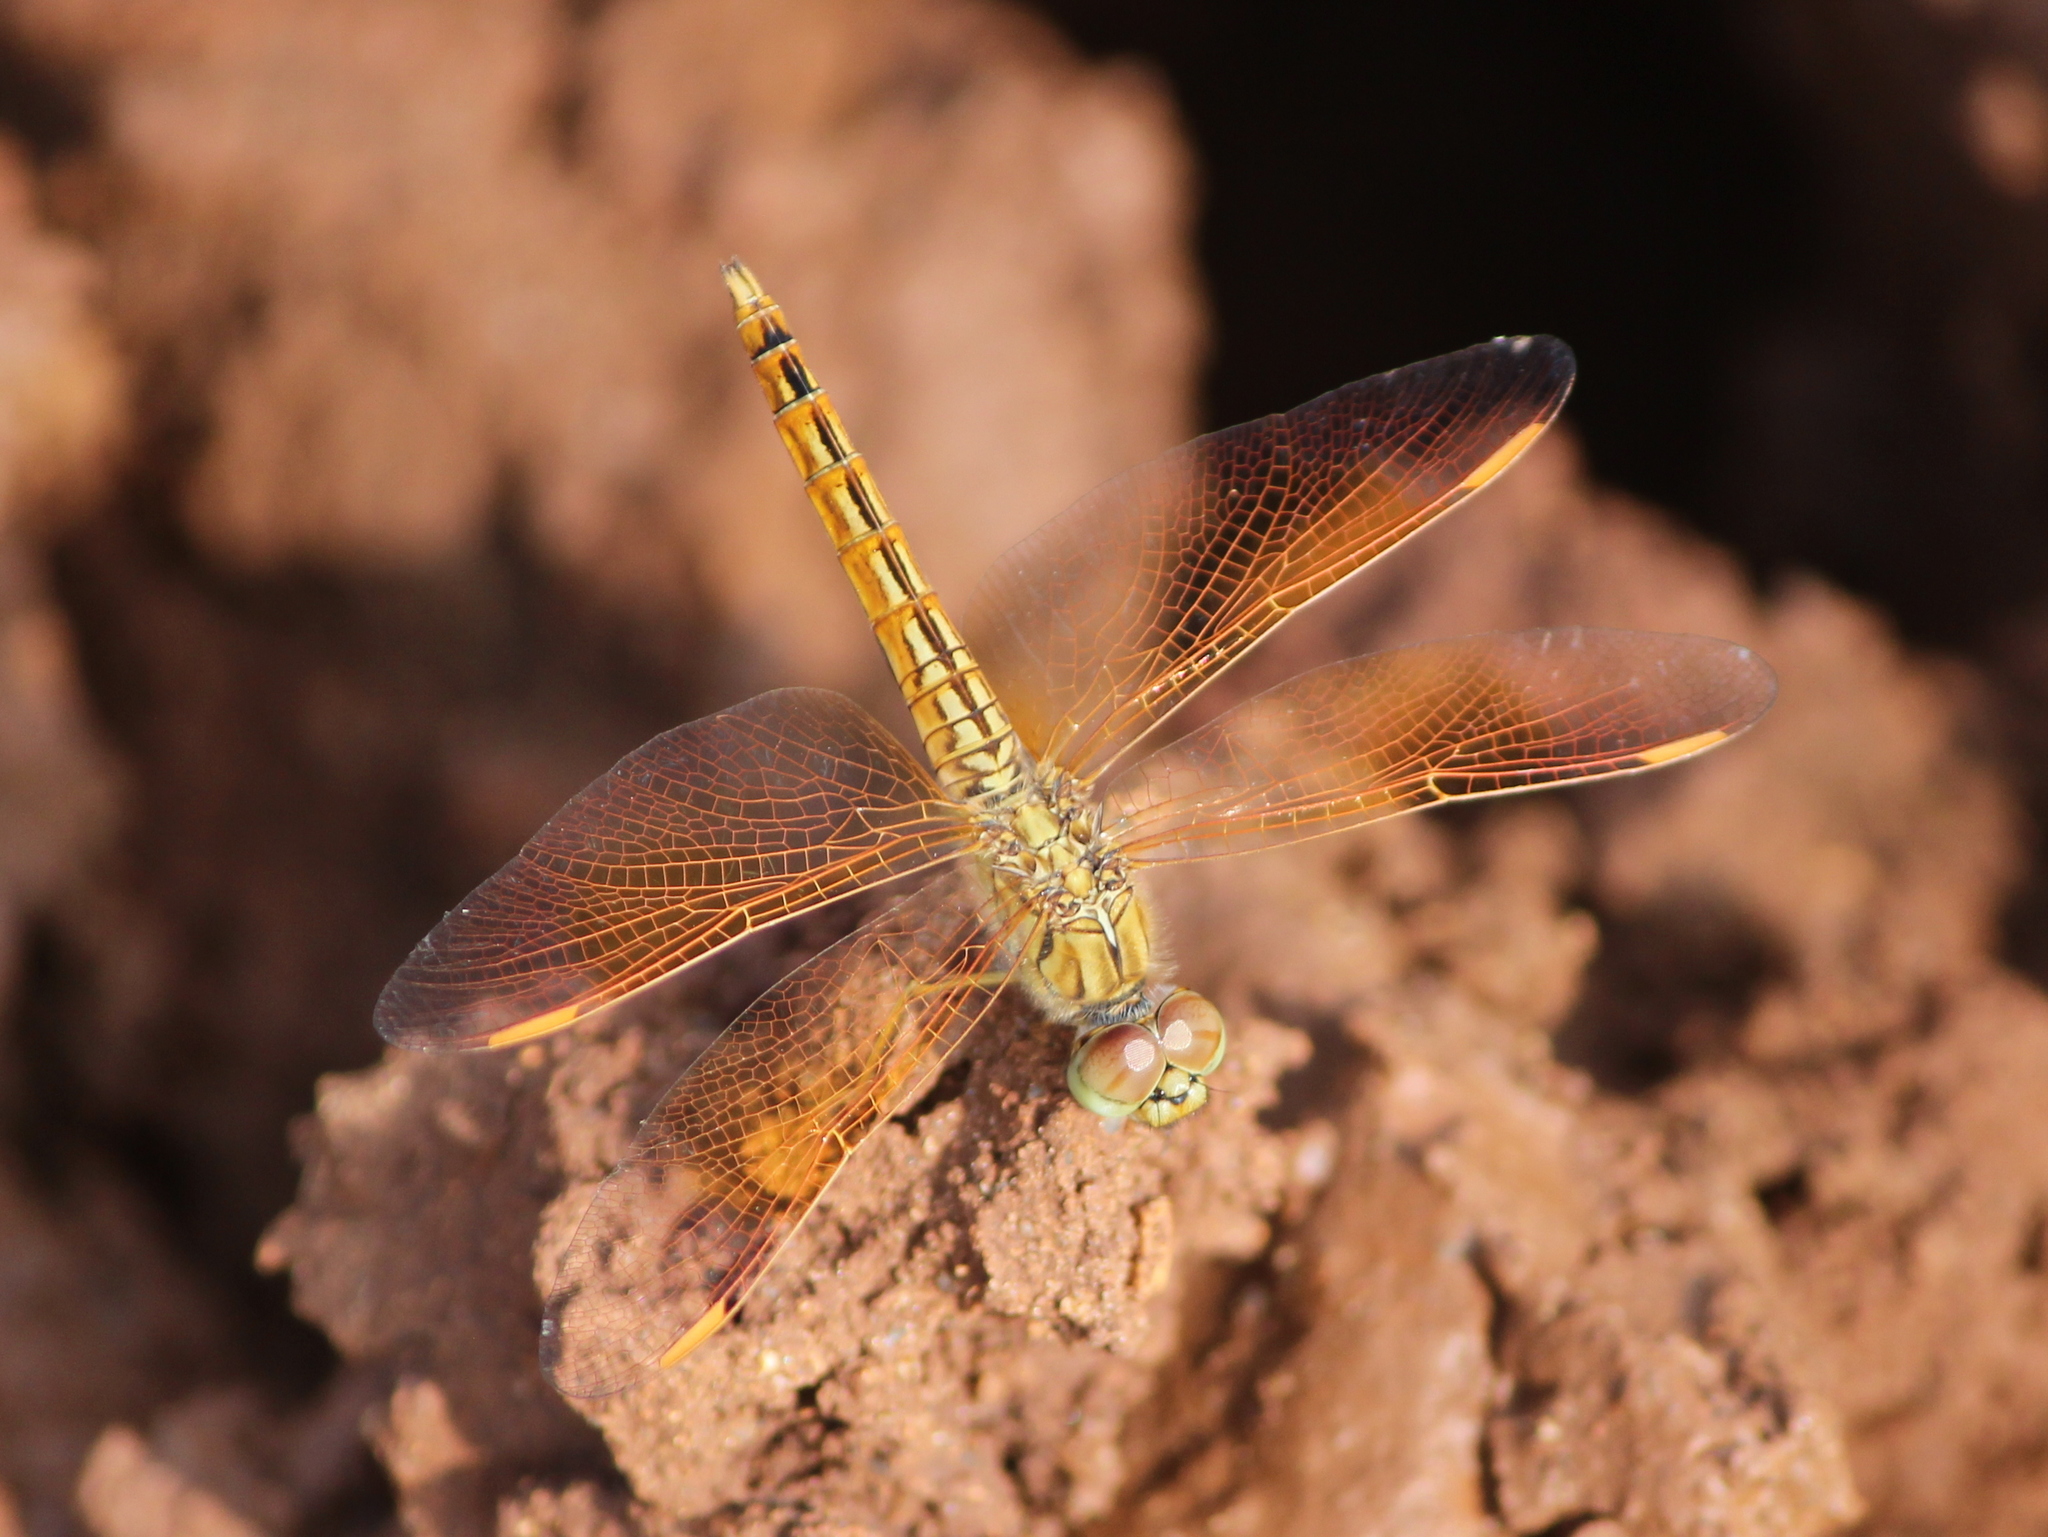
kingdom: Animalia
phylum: Arthropoda
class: Insecta
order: Odonata
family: Libellulidae
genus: Brachythemis
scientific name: Brachythemis contaminata
